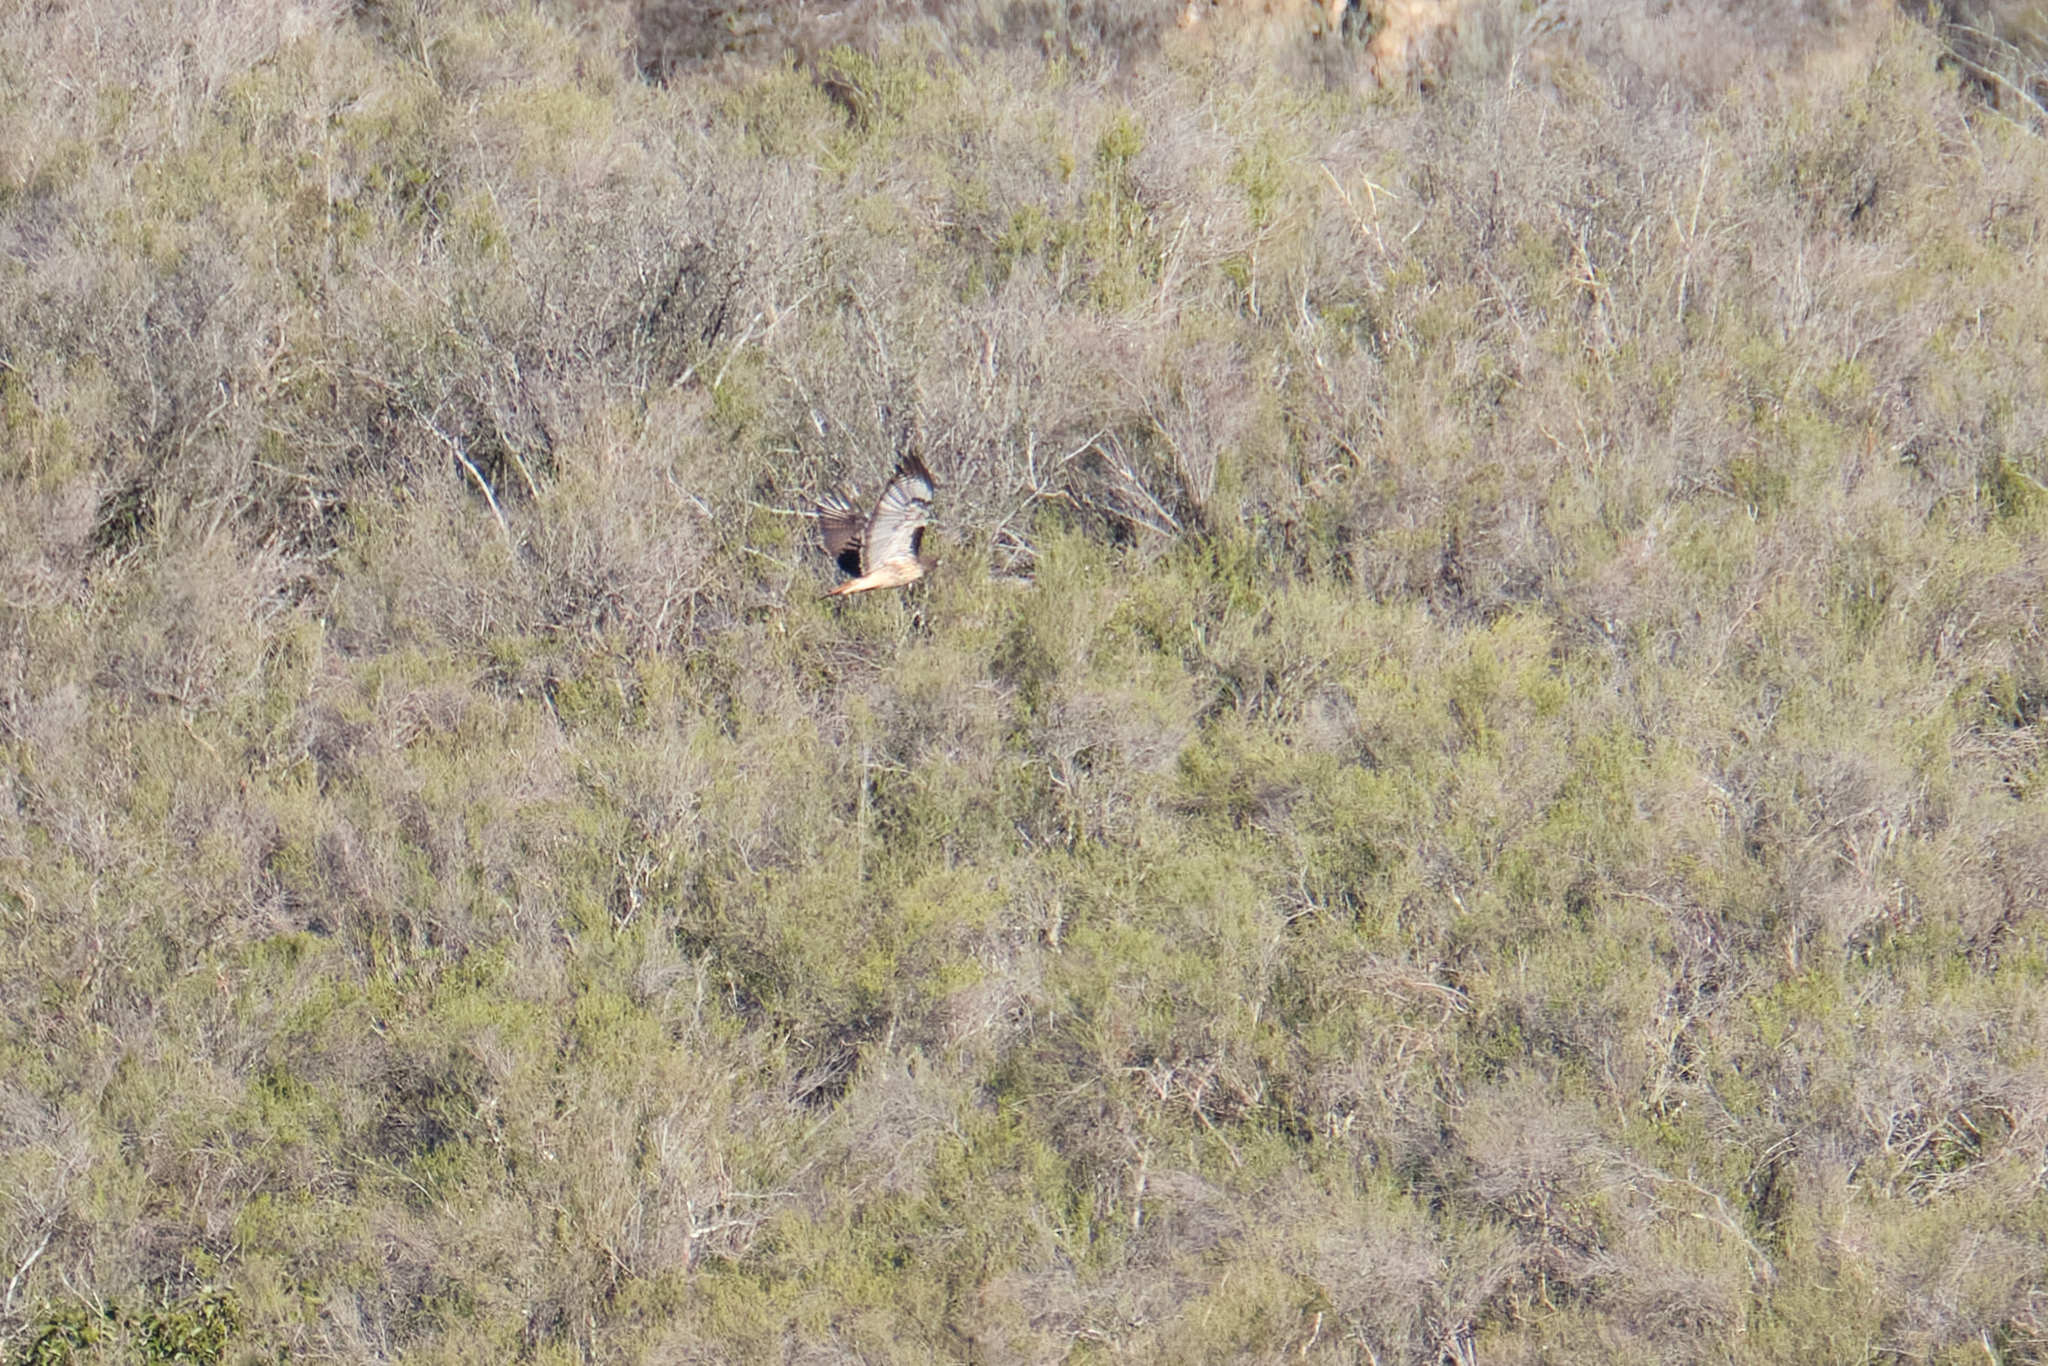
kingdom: Animalia
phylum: Chordata
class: Aves
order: Accipitriformes
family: Accipitridae
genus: Buteo
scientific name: Buteo jamaicensis
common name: Red-tailed hawk
